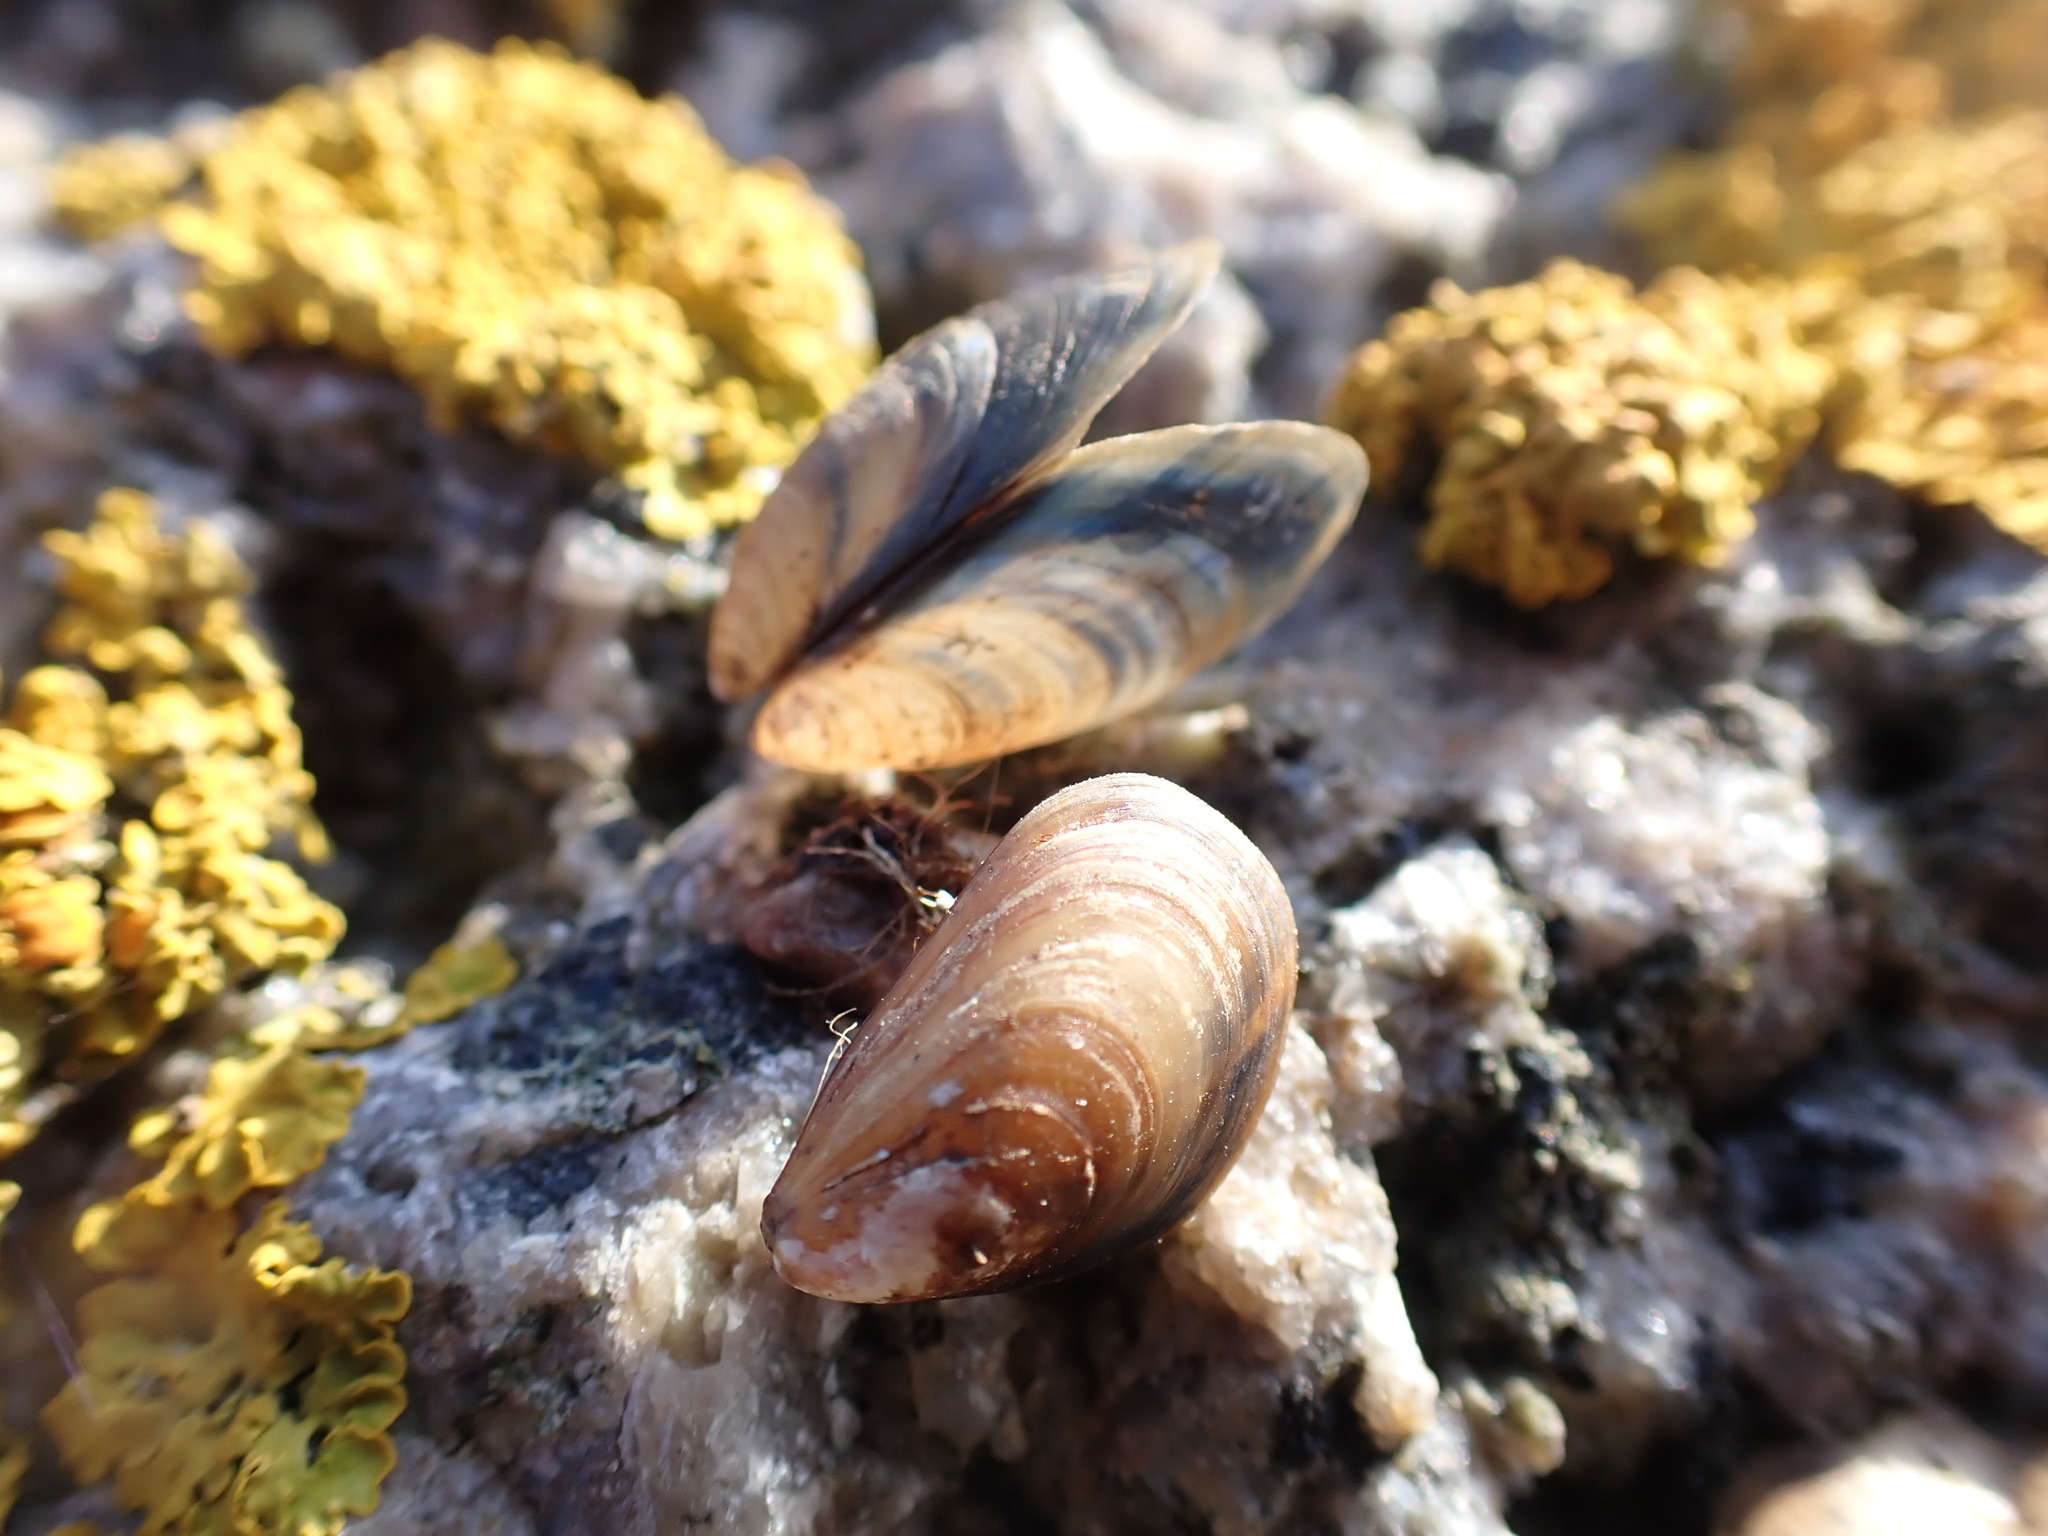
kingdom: Animalia
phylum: Mollusca
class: Bivalvia
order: Mytilida
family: Mytilidae
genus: Mytilus
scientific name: Mytilus edulis
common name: Blue mussel
